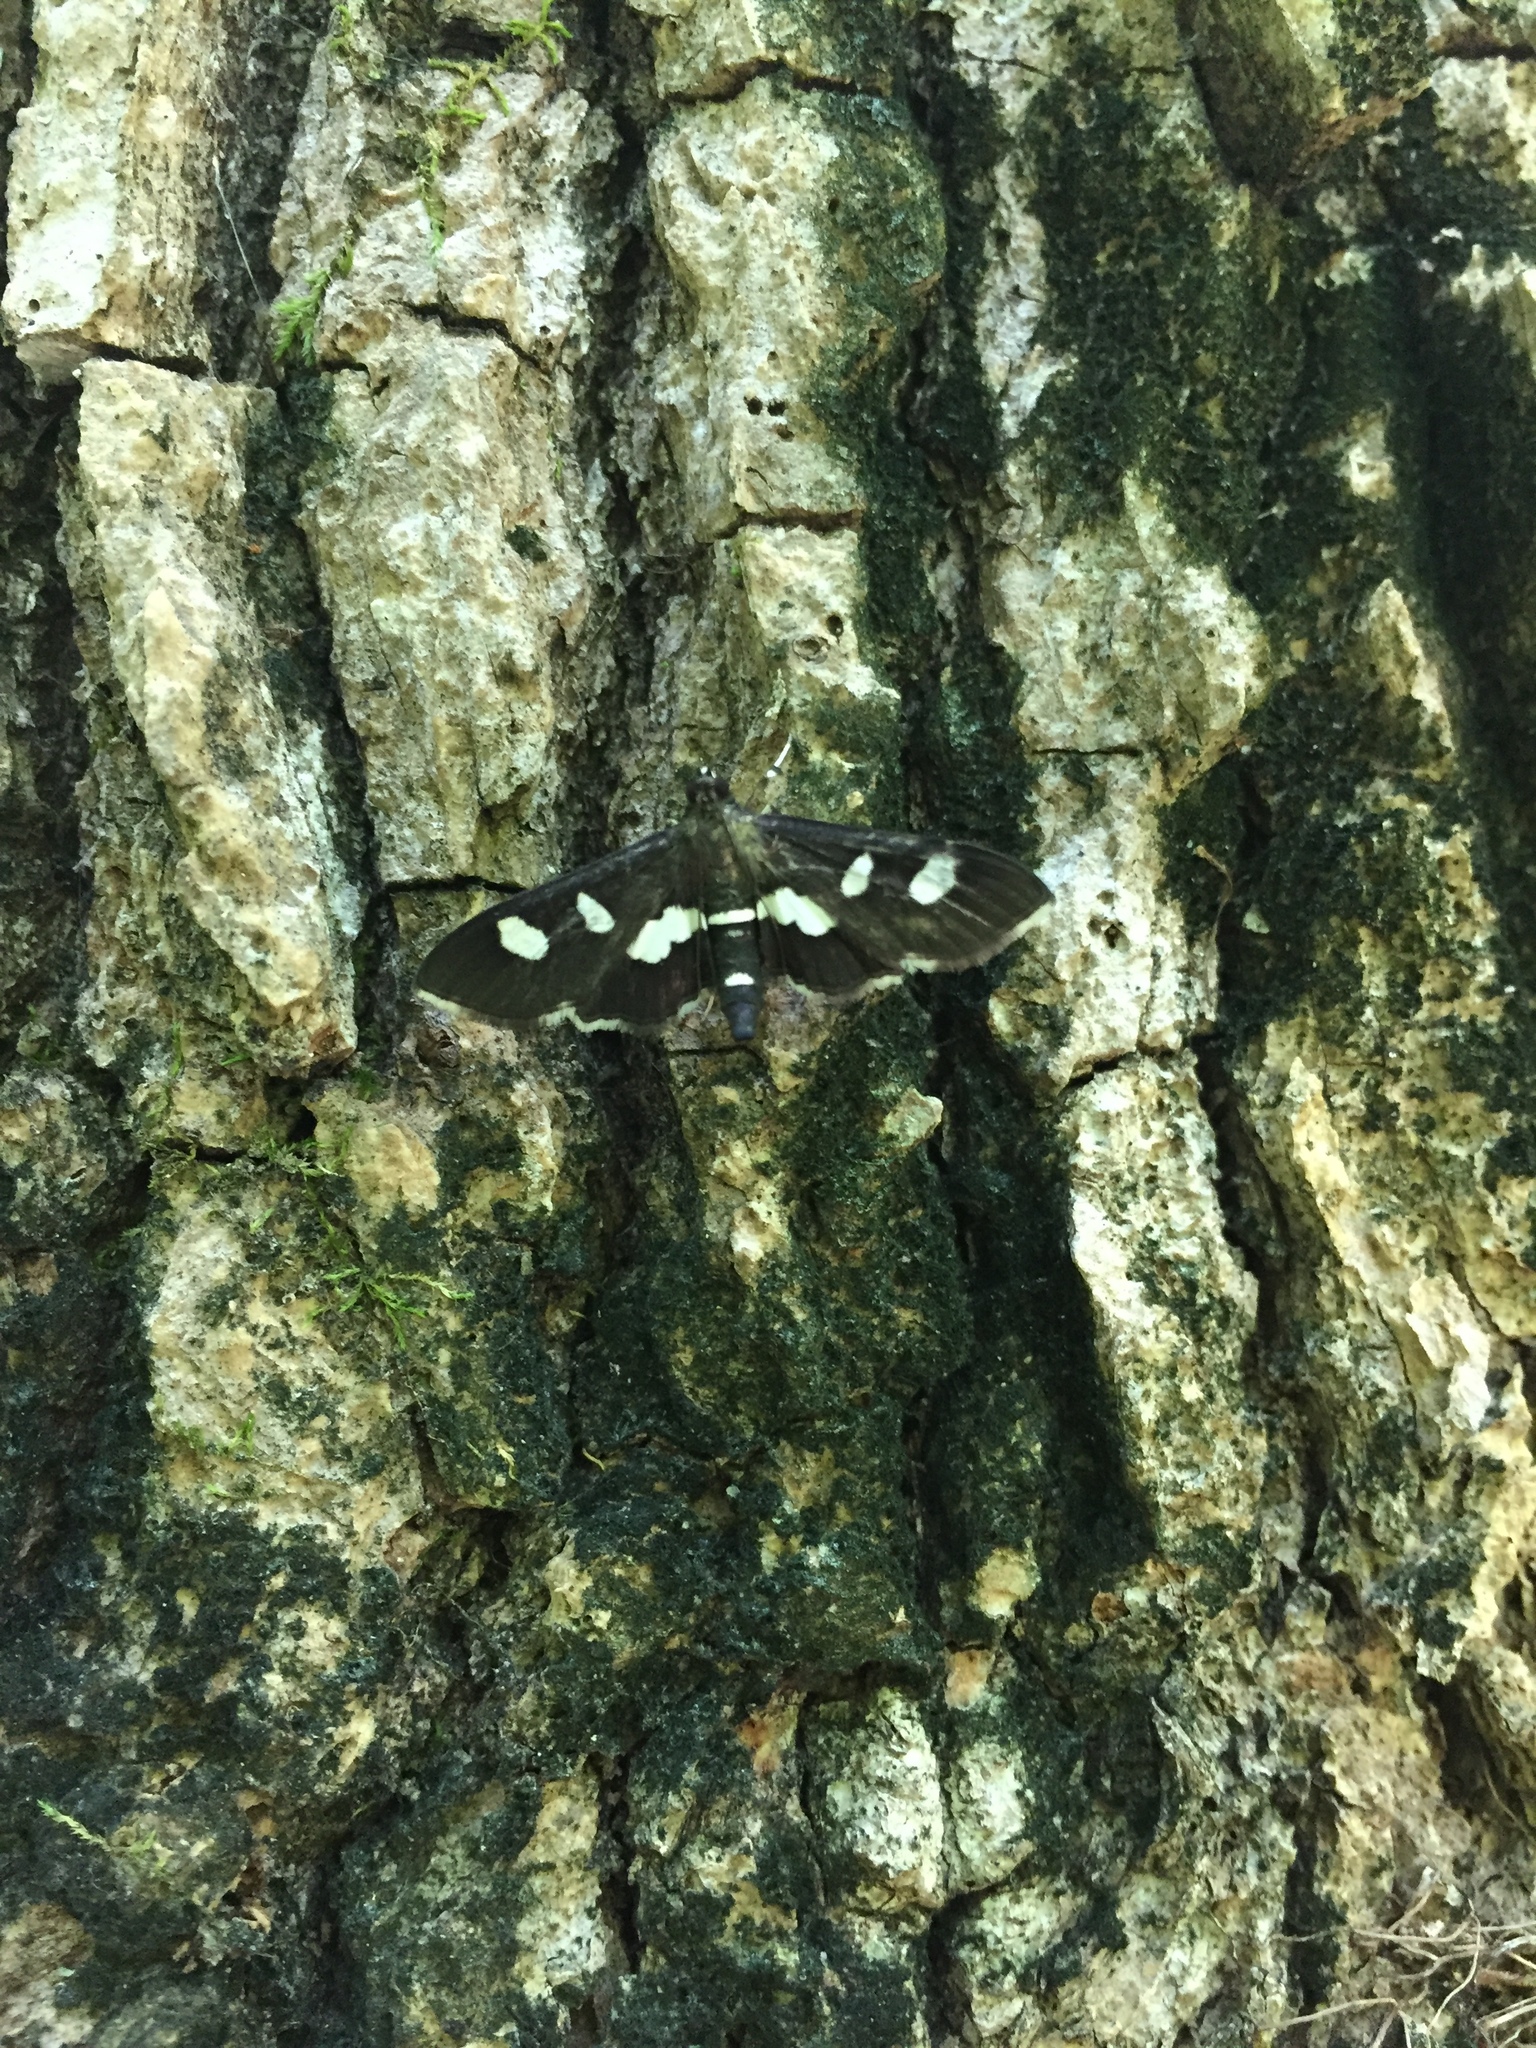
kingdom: Animalia
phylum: Arthropoda
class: Insecta
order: Lepidoptera
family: Crambidae
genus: Desmia
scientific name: Desmia
